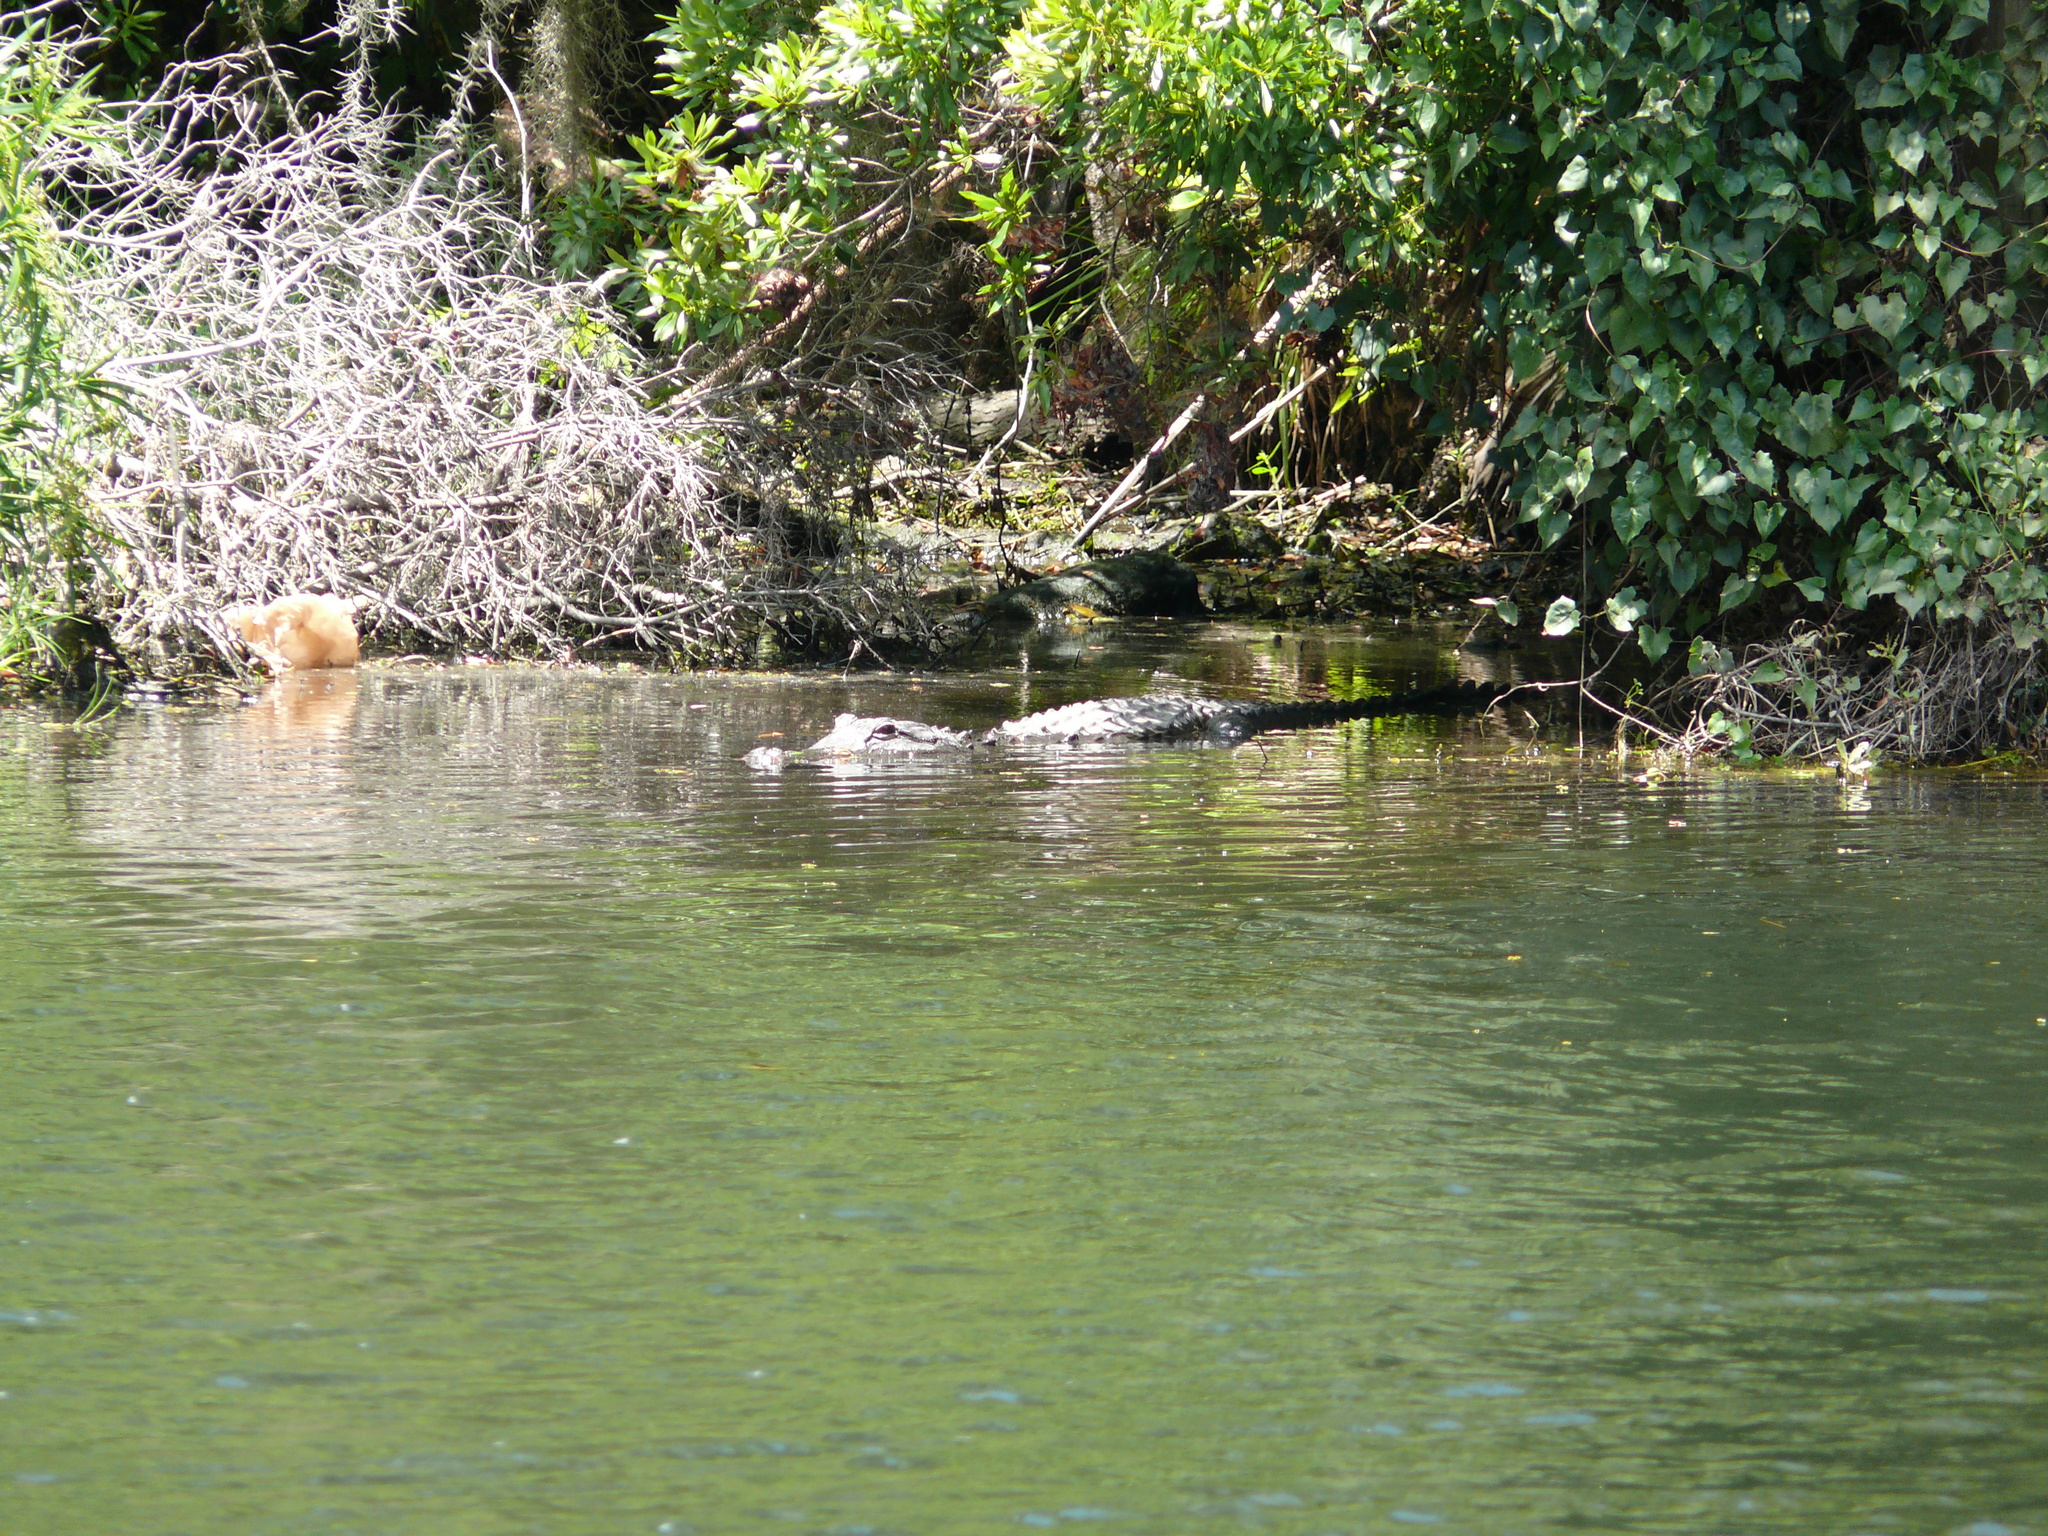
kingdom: Animalia
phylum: Chordata
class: Crocodylia
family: Alligatoridae
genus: Alligator
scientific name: Alligator mississippiensis
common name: American alligator
